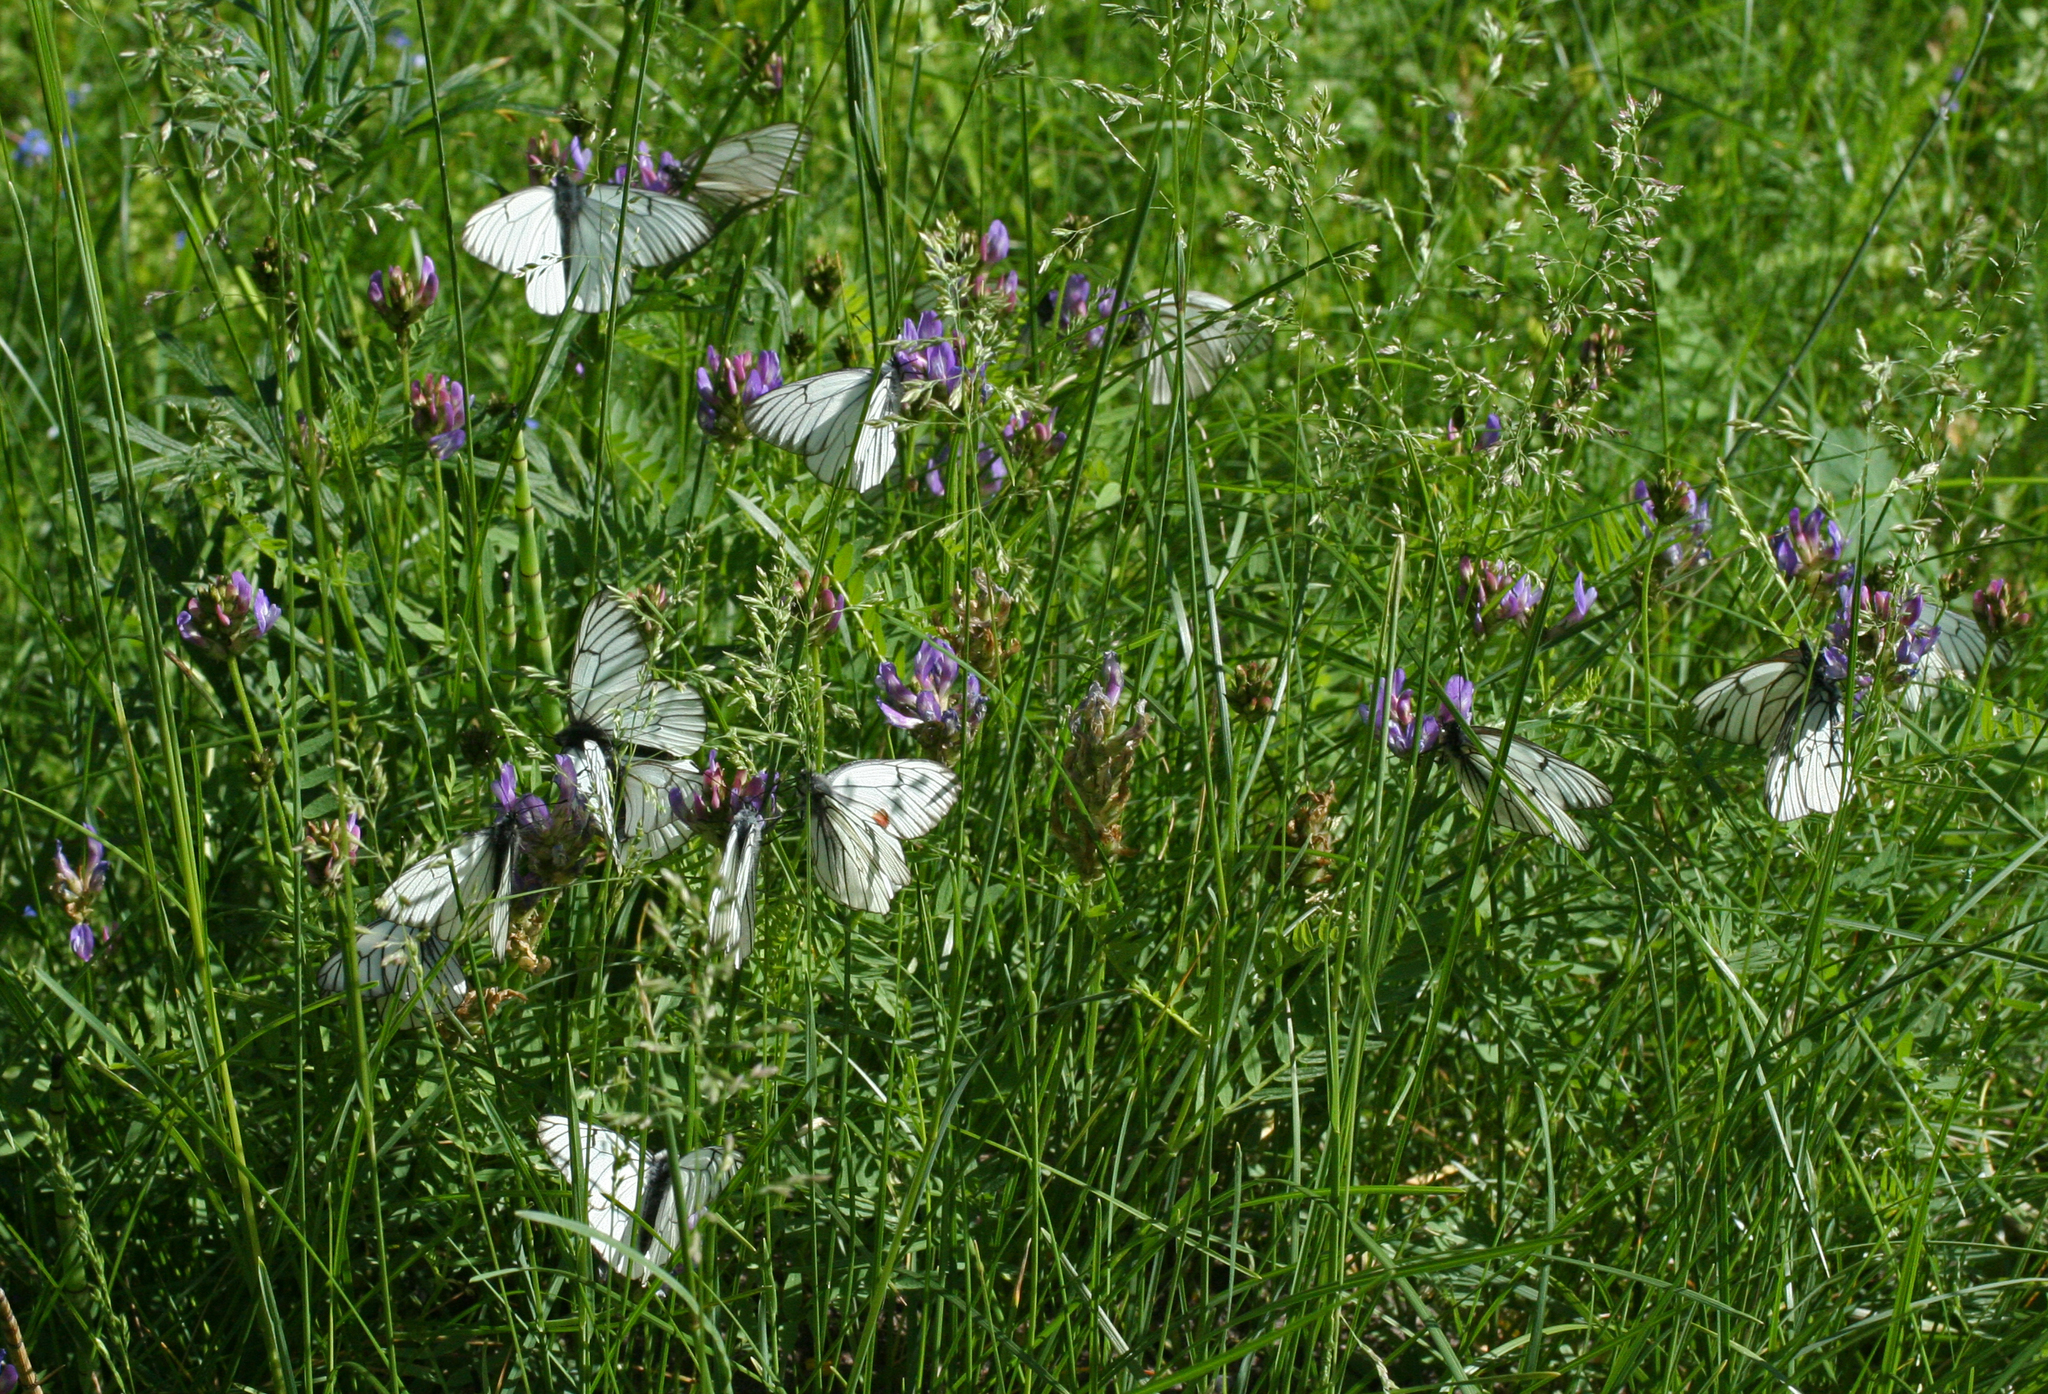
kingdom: Plantae
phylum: Tracheophyta
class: Magnoliopsida
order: Fabales
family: Fabaceae
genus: Astragalus
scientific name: Astragalus danicus
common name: Purple milk-vetch
